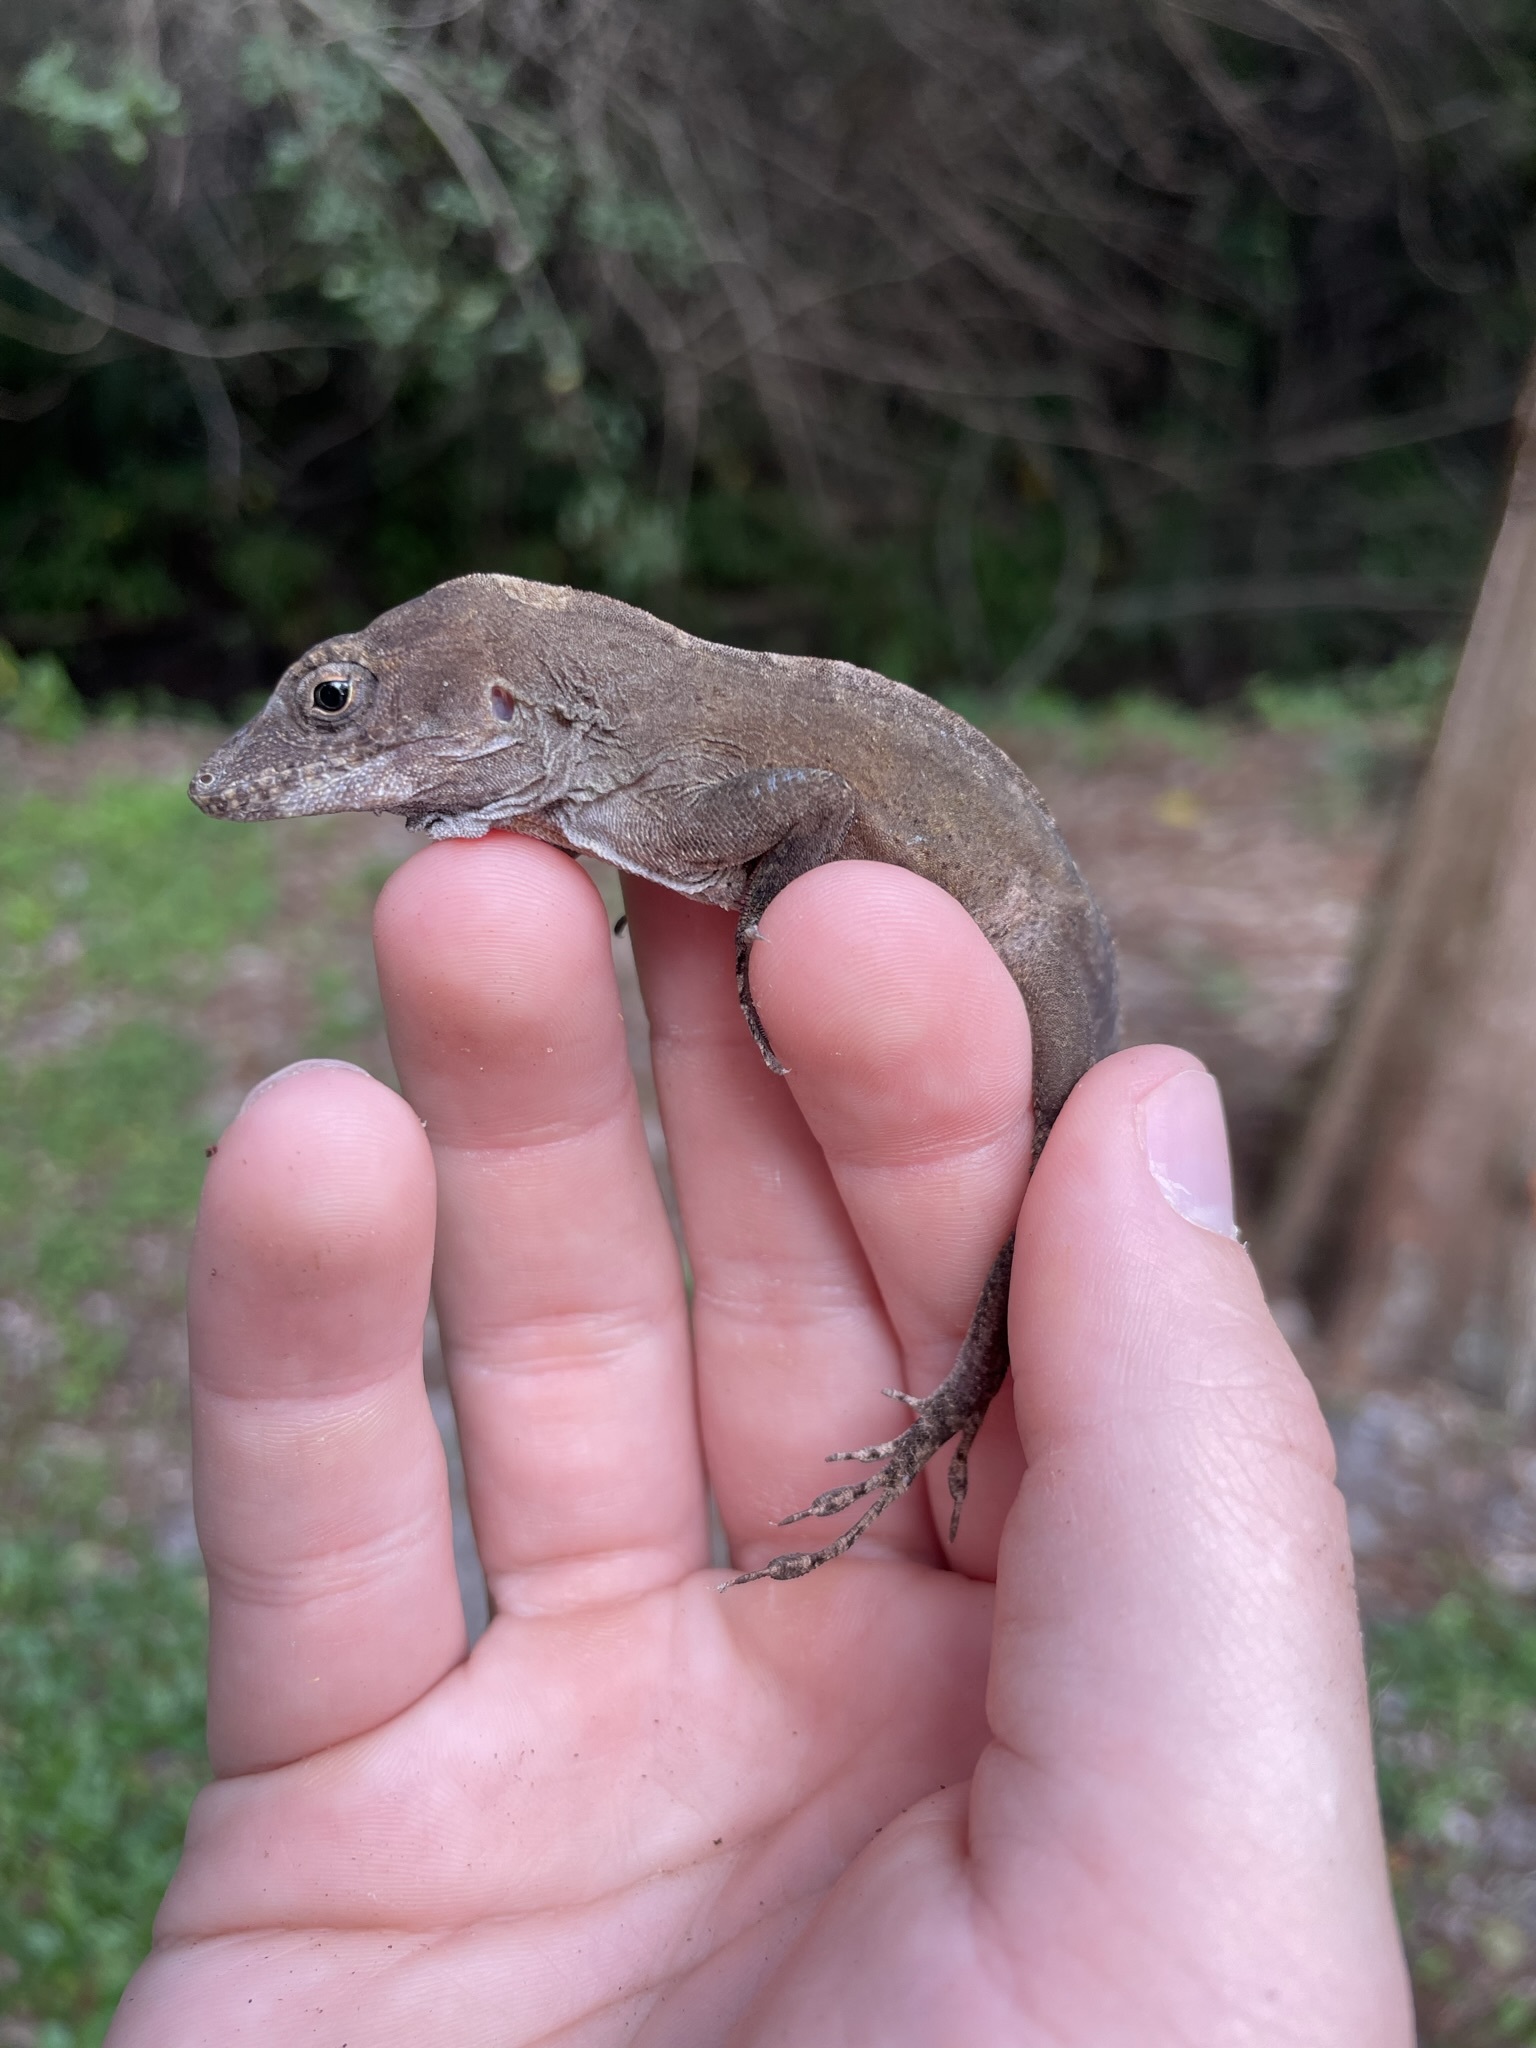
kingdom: Animalia
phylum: Chordata
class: Squamata
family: Dactyloidae
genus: Anolis
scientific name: Anolis cybotes
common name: Large-headed anole
